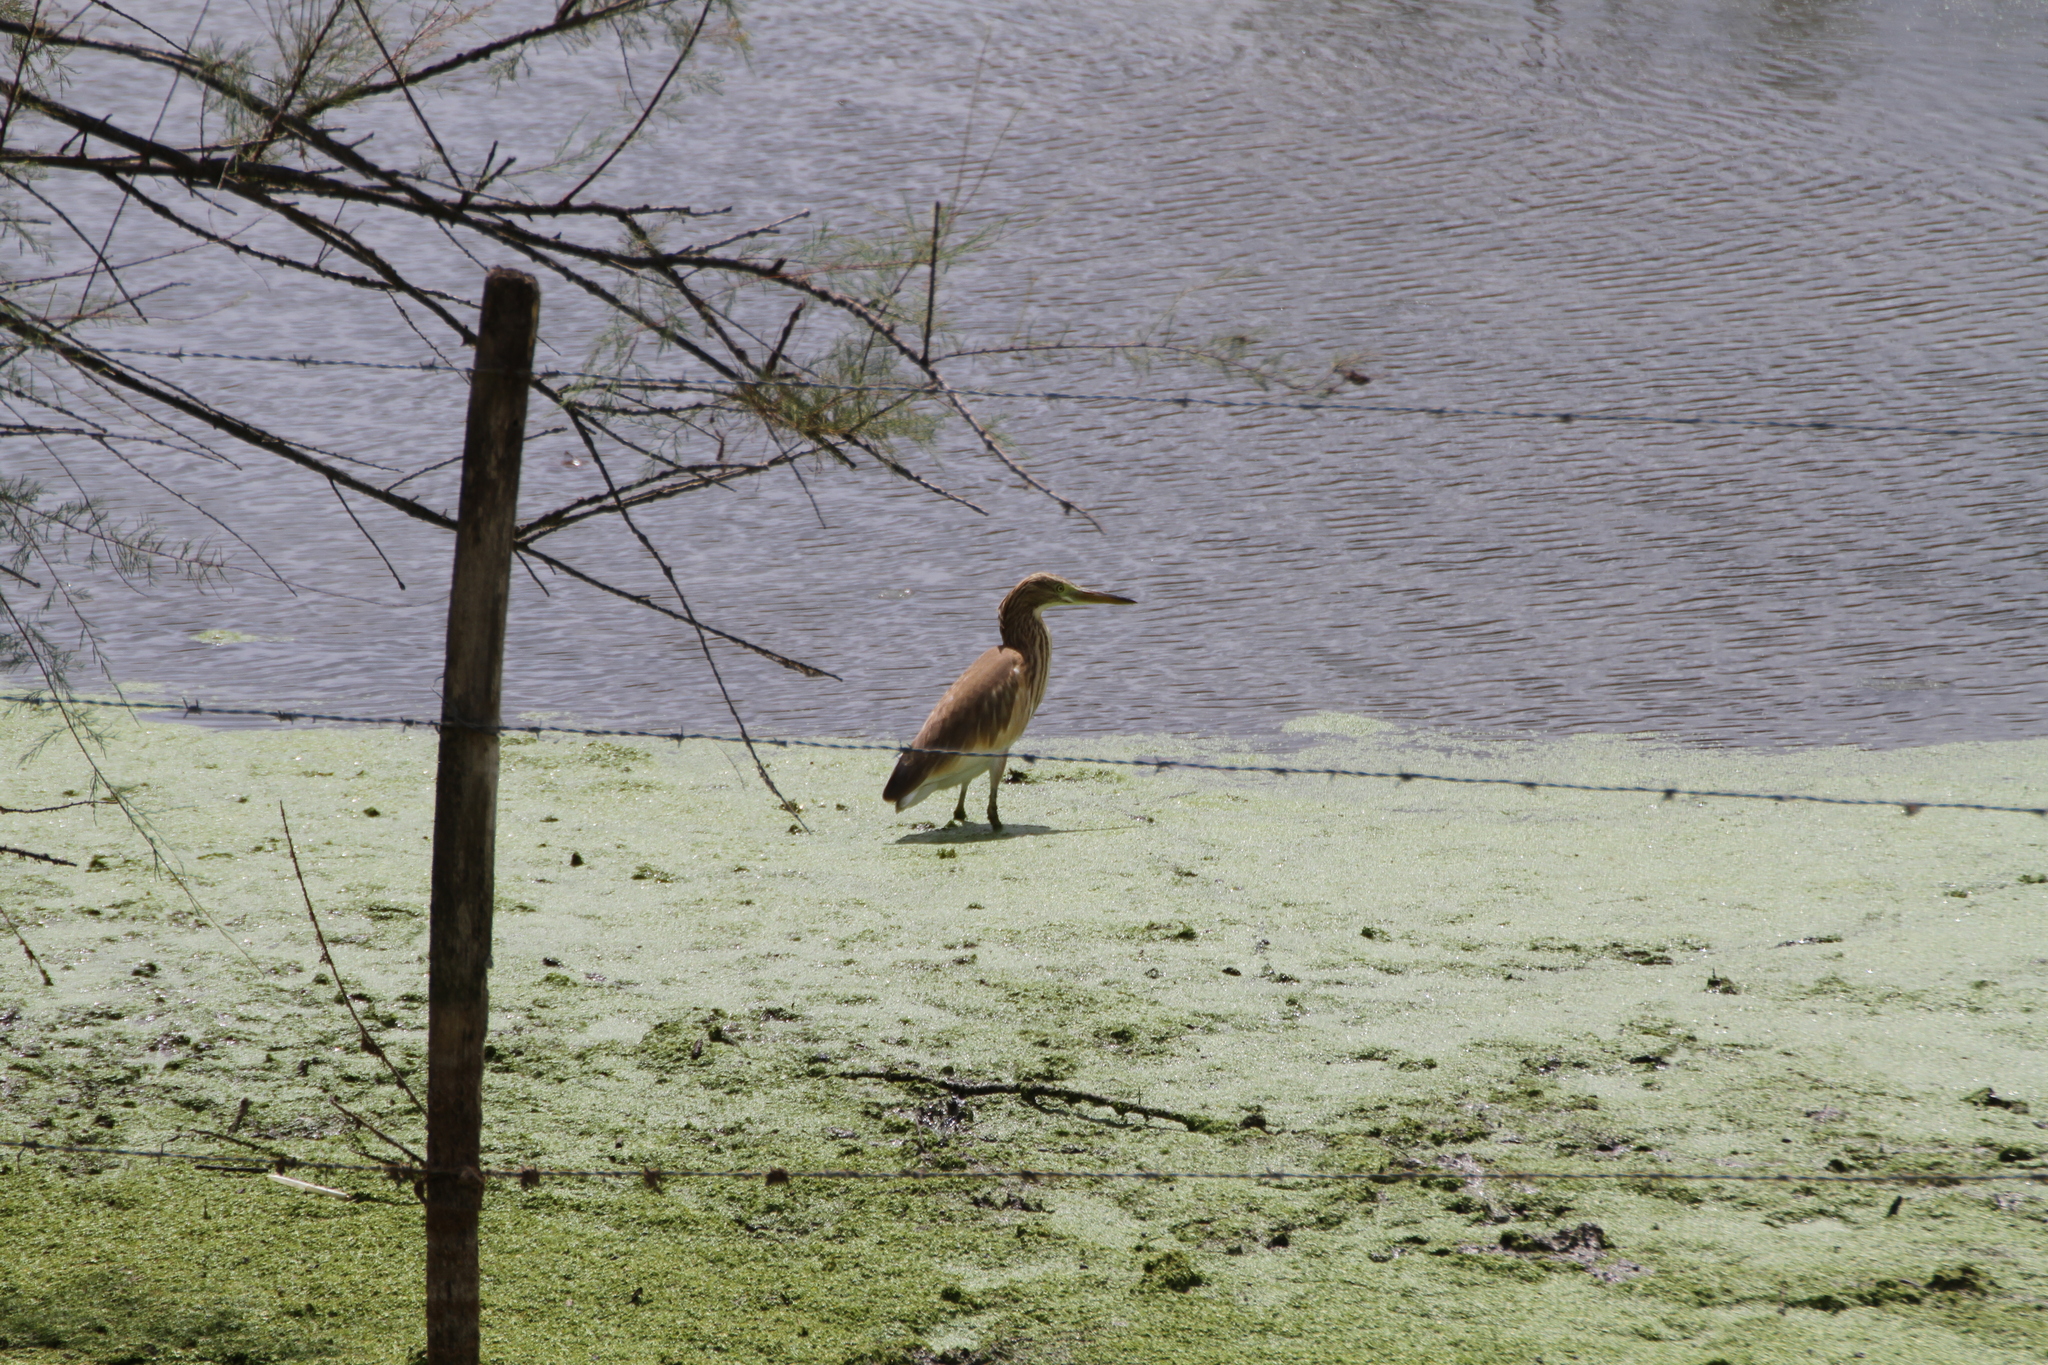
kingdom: Animalia
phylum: Chordata
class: Aves
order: Pelecaniformes
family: Ardeidae
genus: Ardeola
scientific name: Ardeola ralloides
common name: Squacco heron
